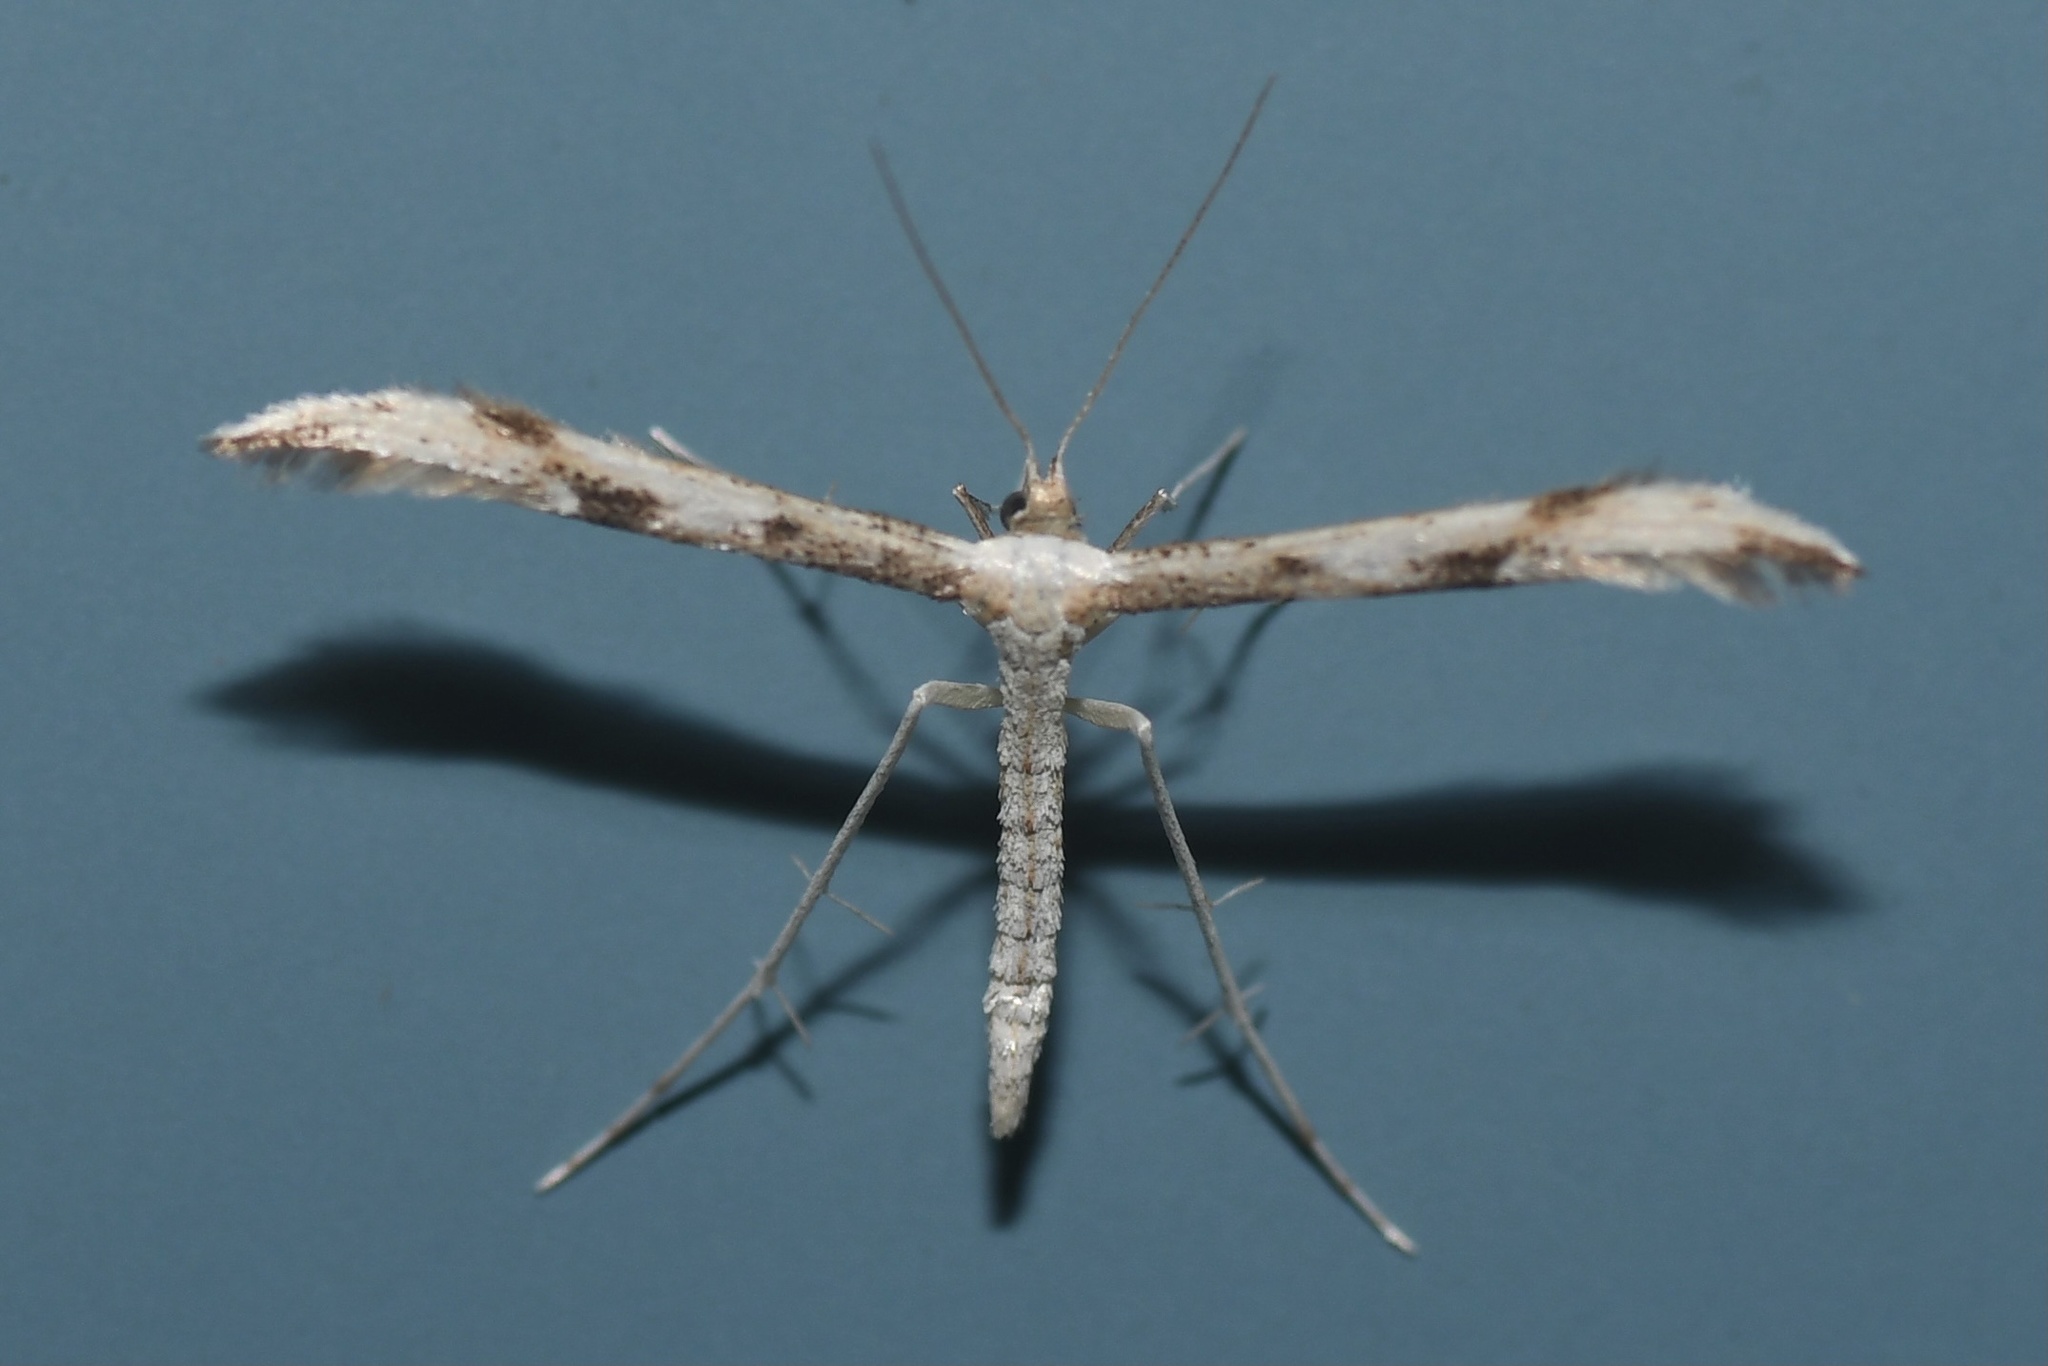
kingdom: Animalia
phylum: Arthropoda
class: Insecta
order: Lepidoptera
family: Pterophoridae
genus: Adaina
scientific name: Adaina montanus
